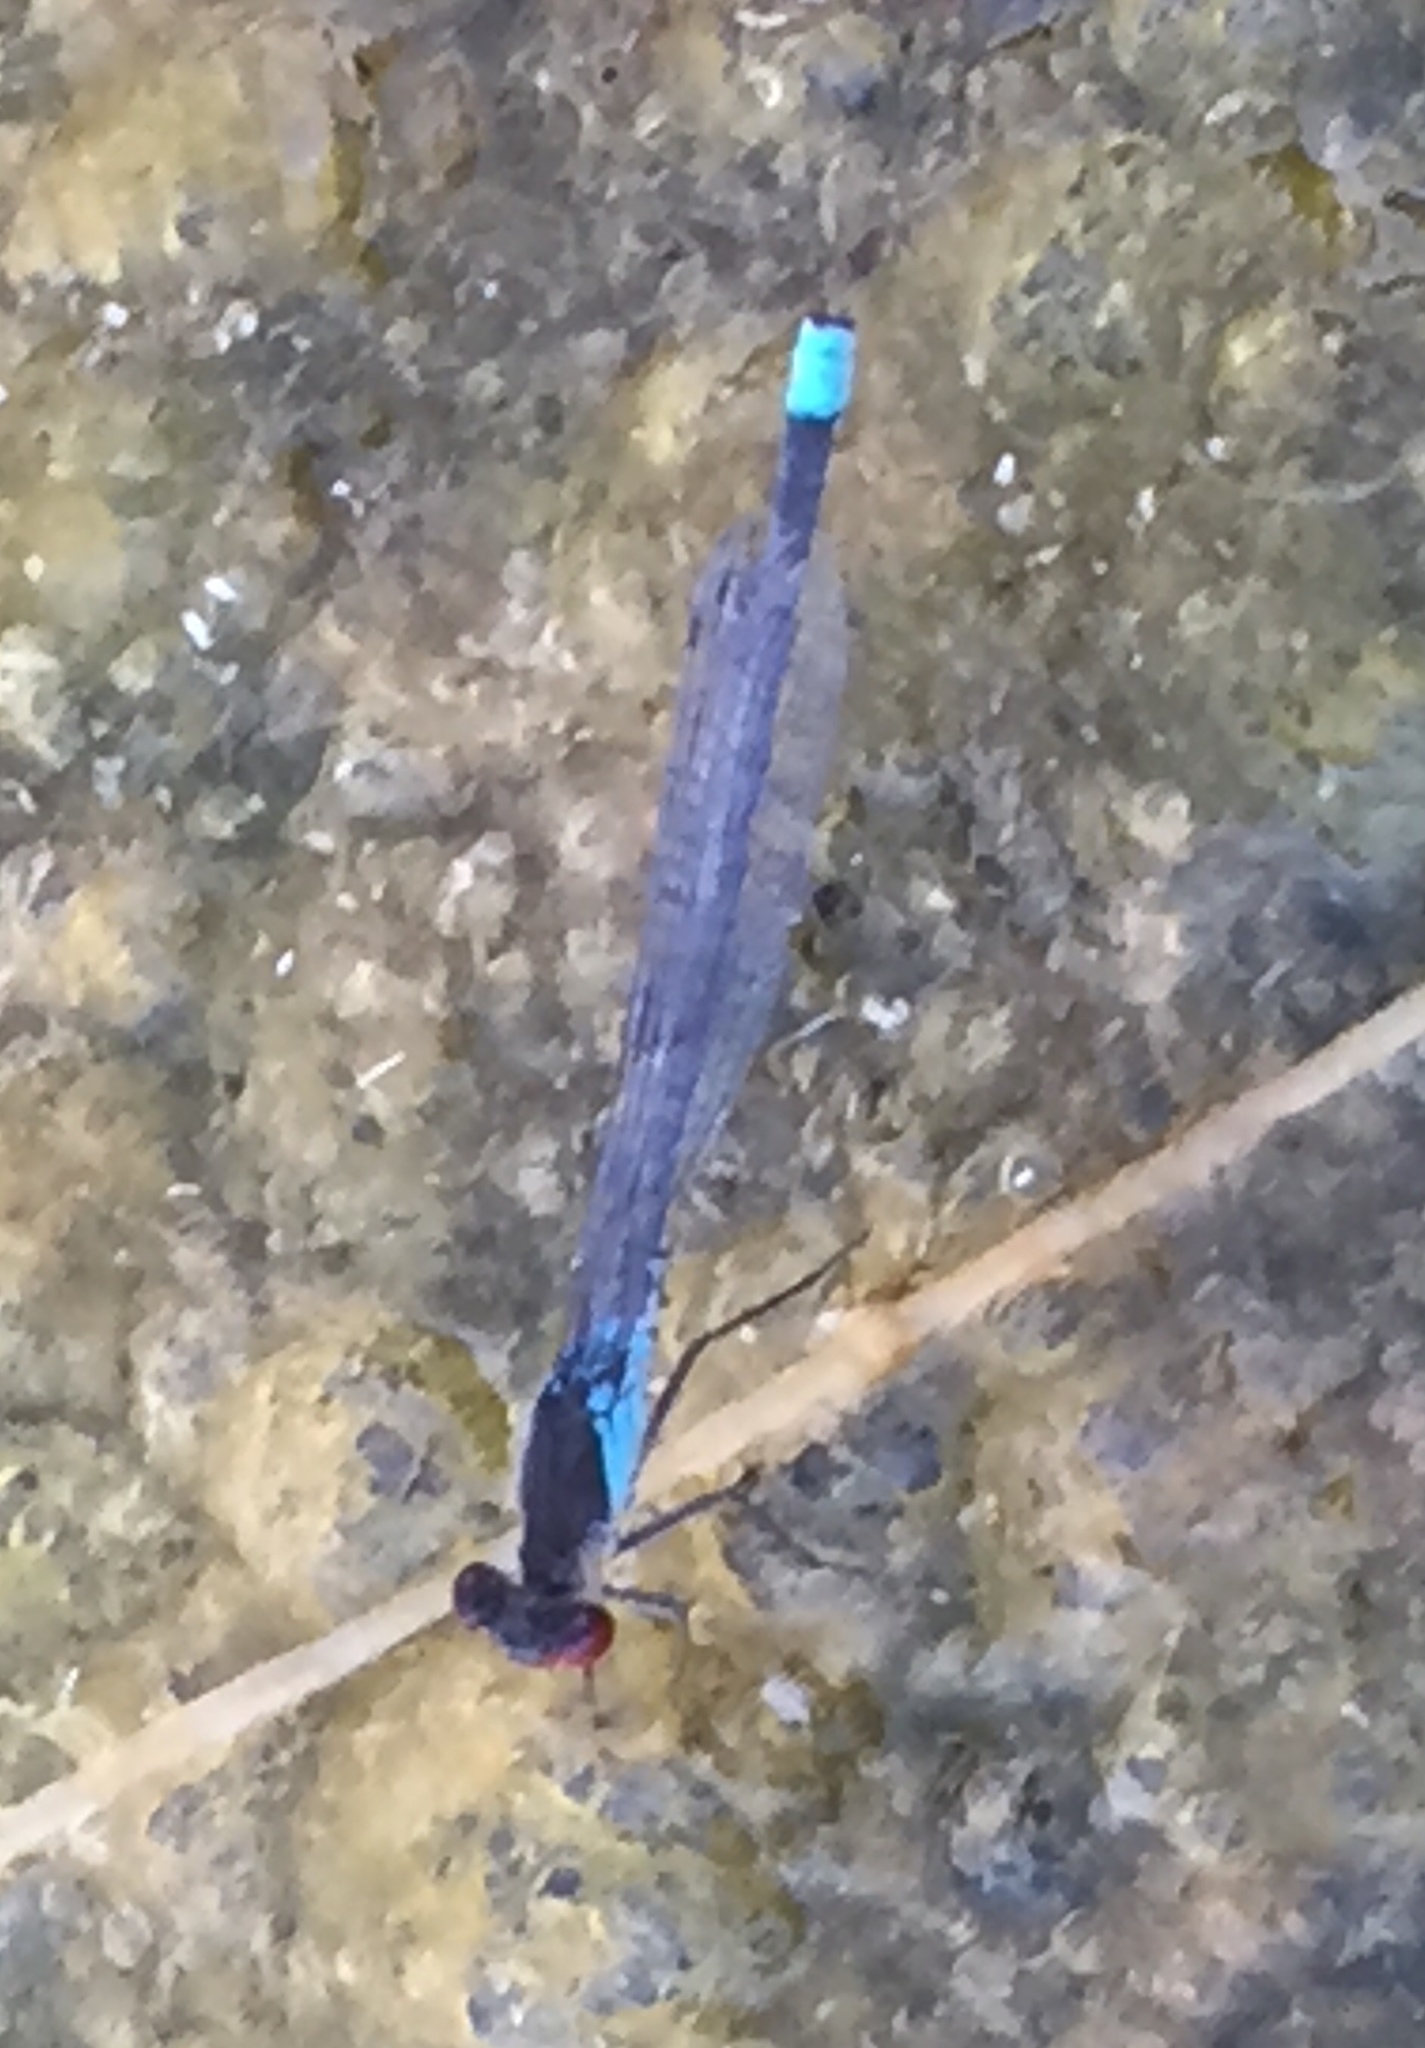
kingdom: Animalia
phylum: Arthropoda
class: Insecta
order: Odonata
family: Coenagrionidae
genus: Erythromma
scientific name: Erythromma najas
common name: Red-eyed damselfly
